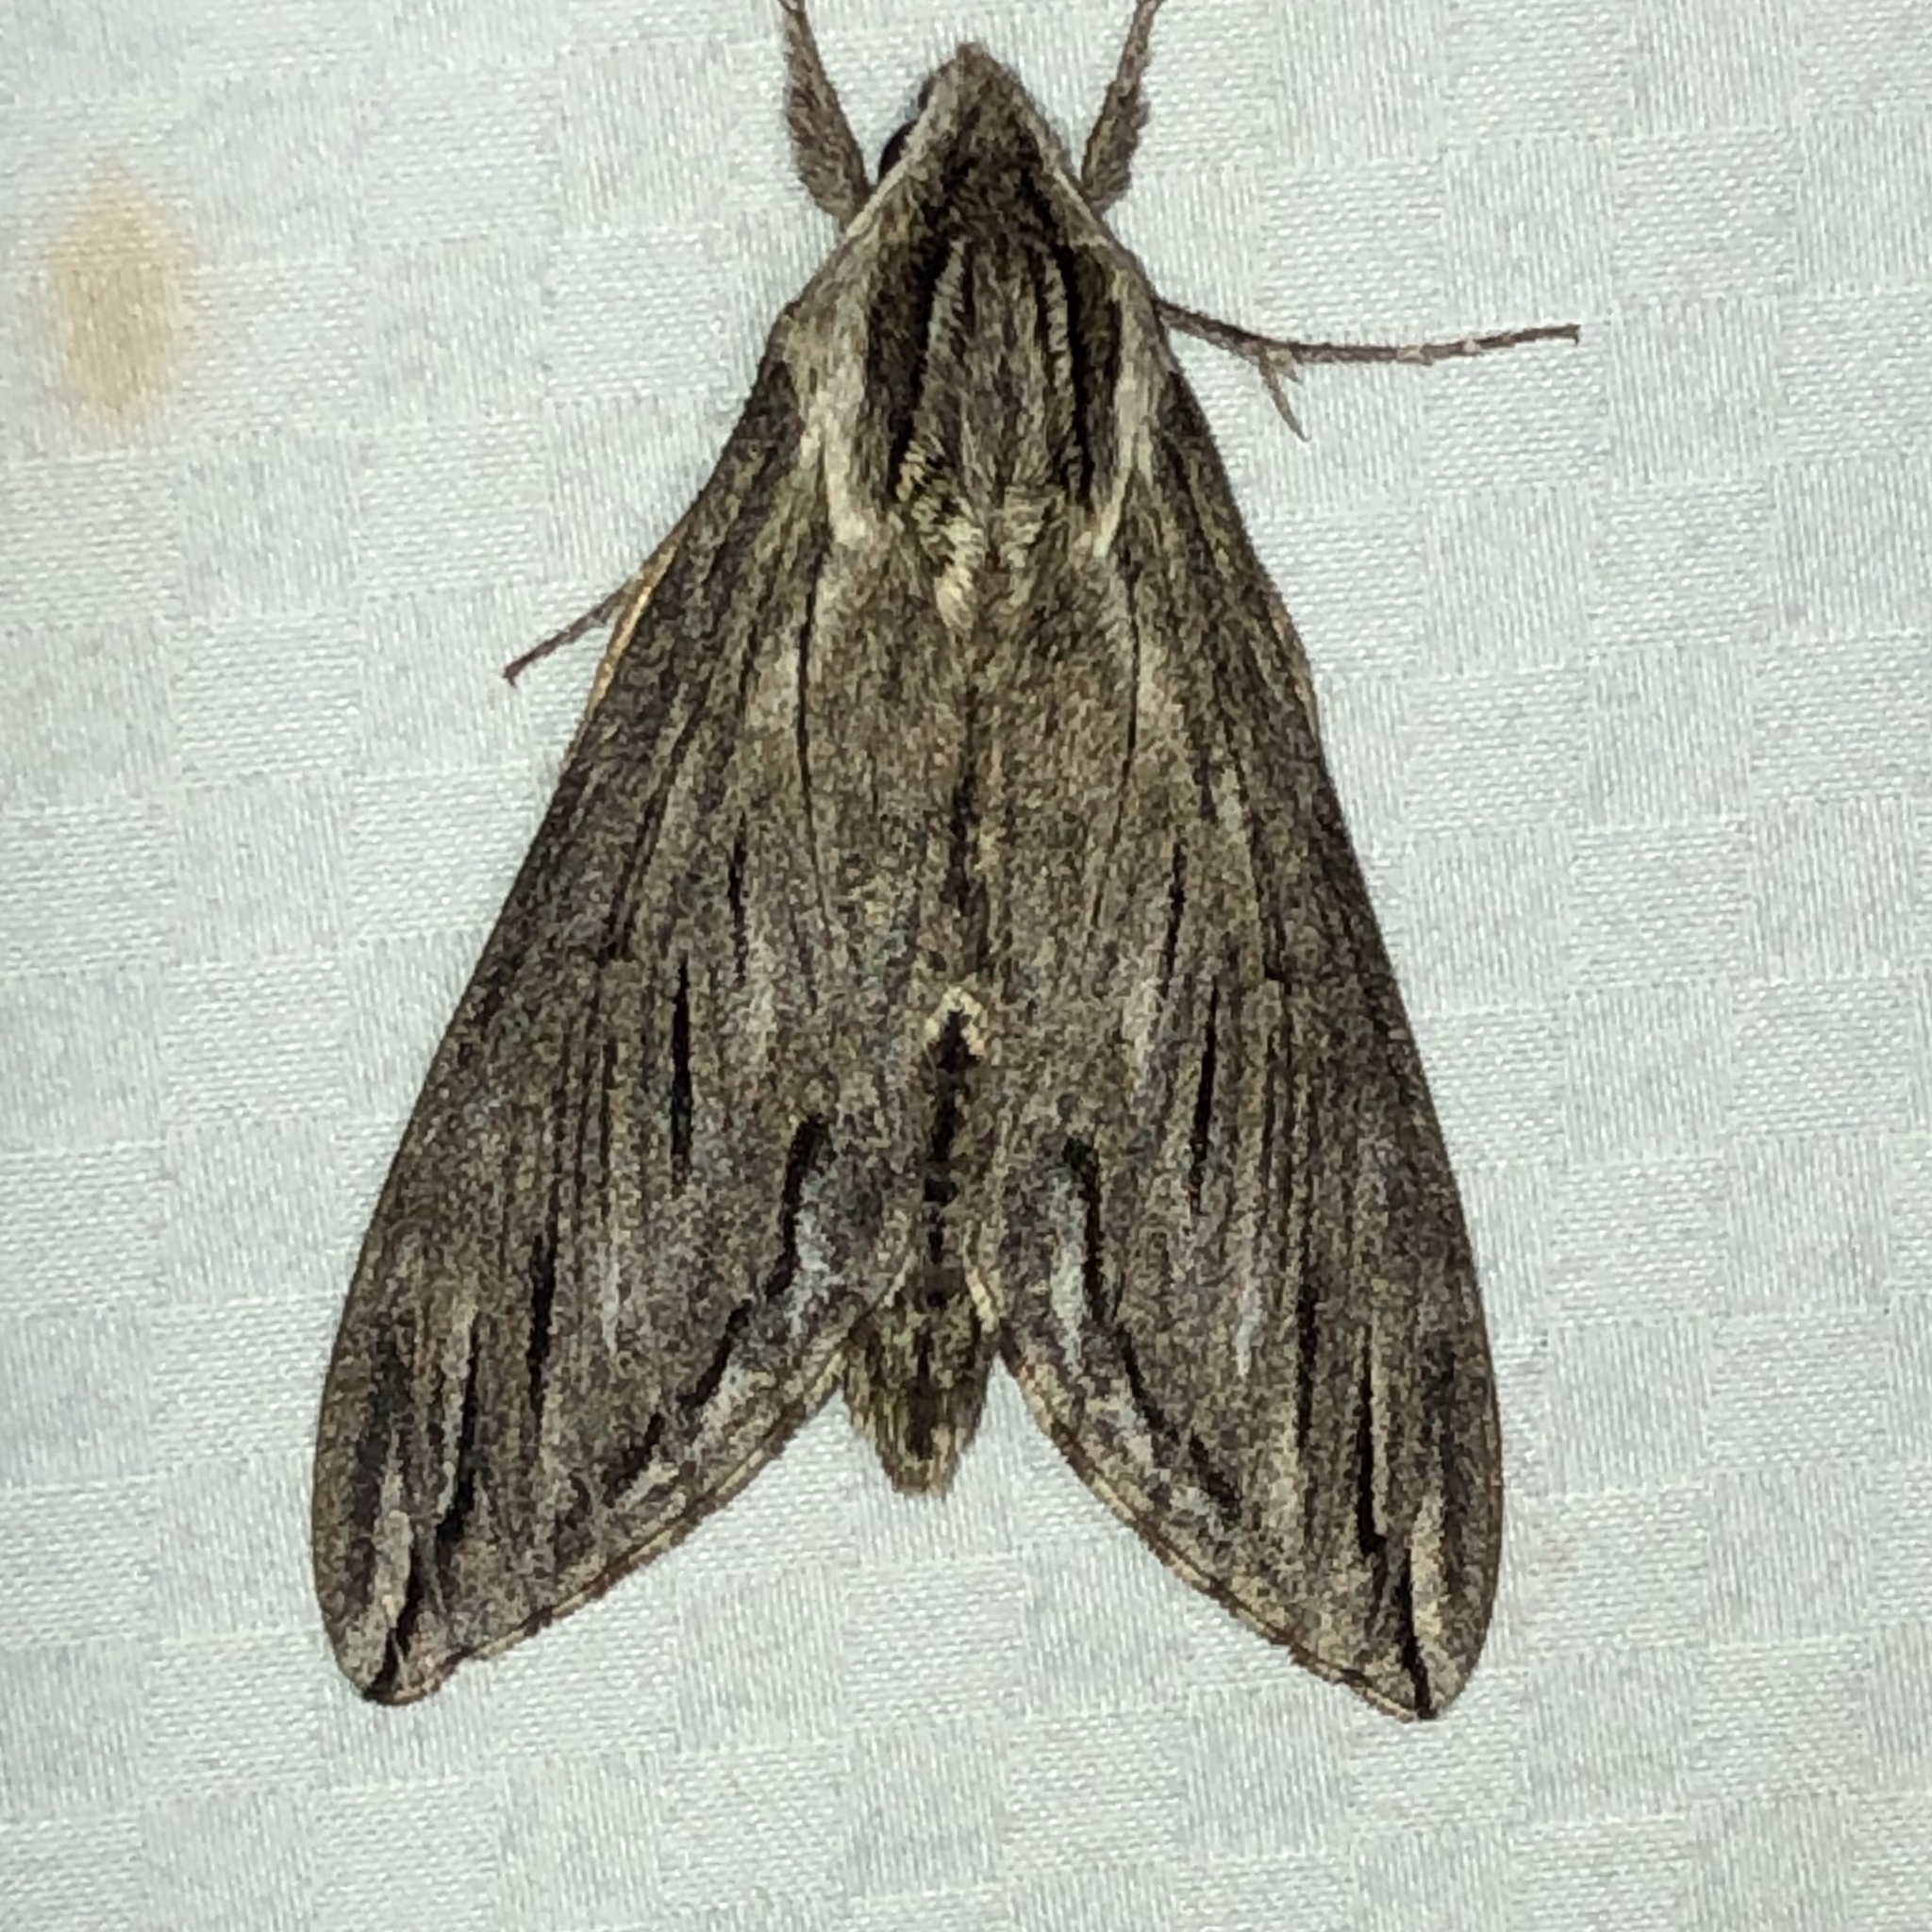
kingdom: Animalia
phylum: Arthropoda
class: Insecta
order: Lepidoptera
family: Sphingidae
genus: Sphinx
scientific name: Sphinx canadensis
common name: Canadian sphinx
